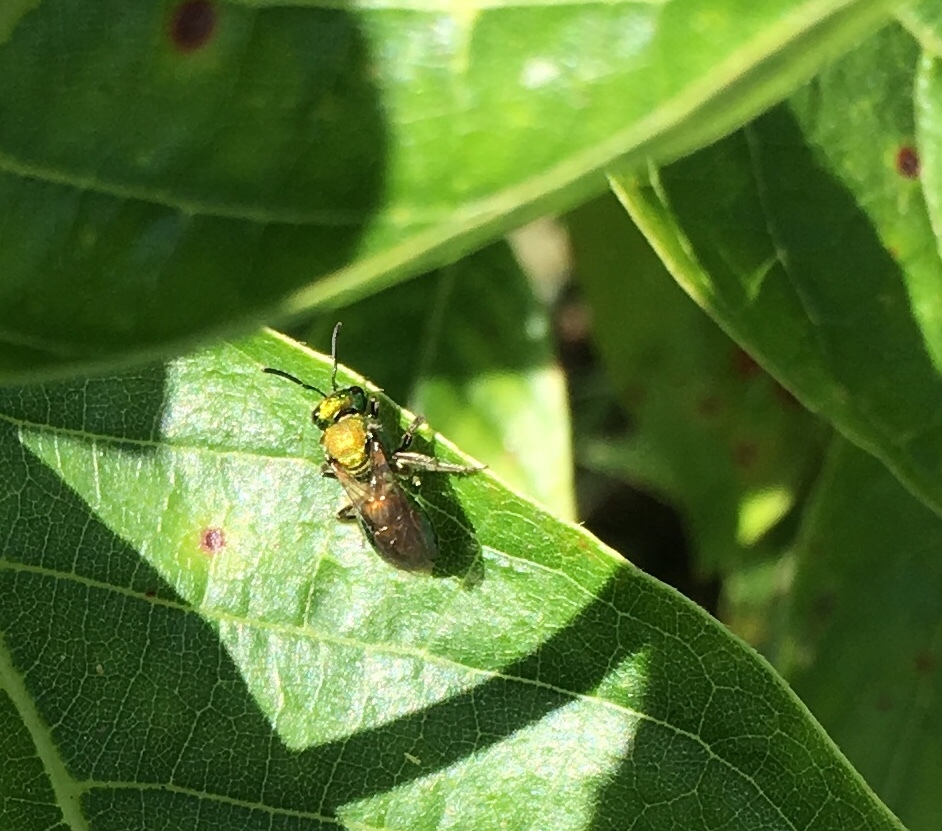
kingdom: Animalia
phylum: Arthropoda
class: Insecta
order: Hymenoptera
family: Halictidae
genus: Augochlora
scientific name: Augochlora pura
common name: Pure green sweat bee
